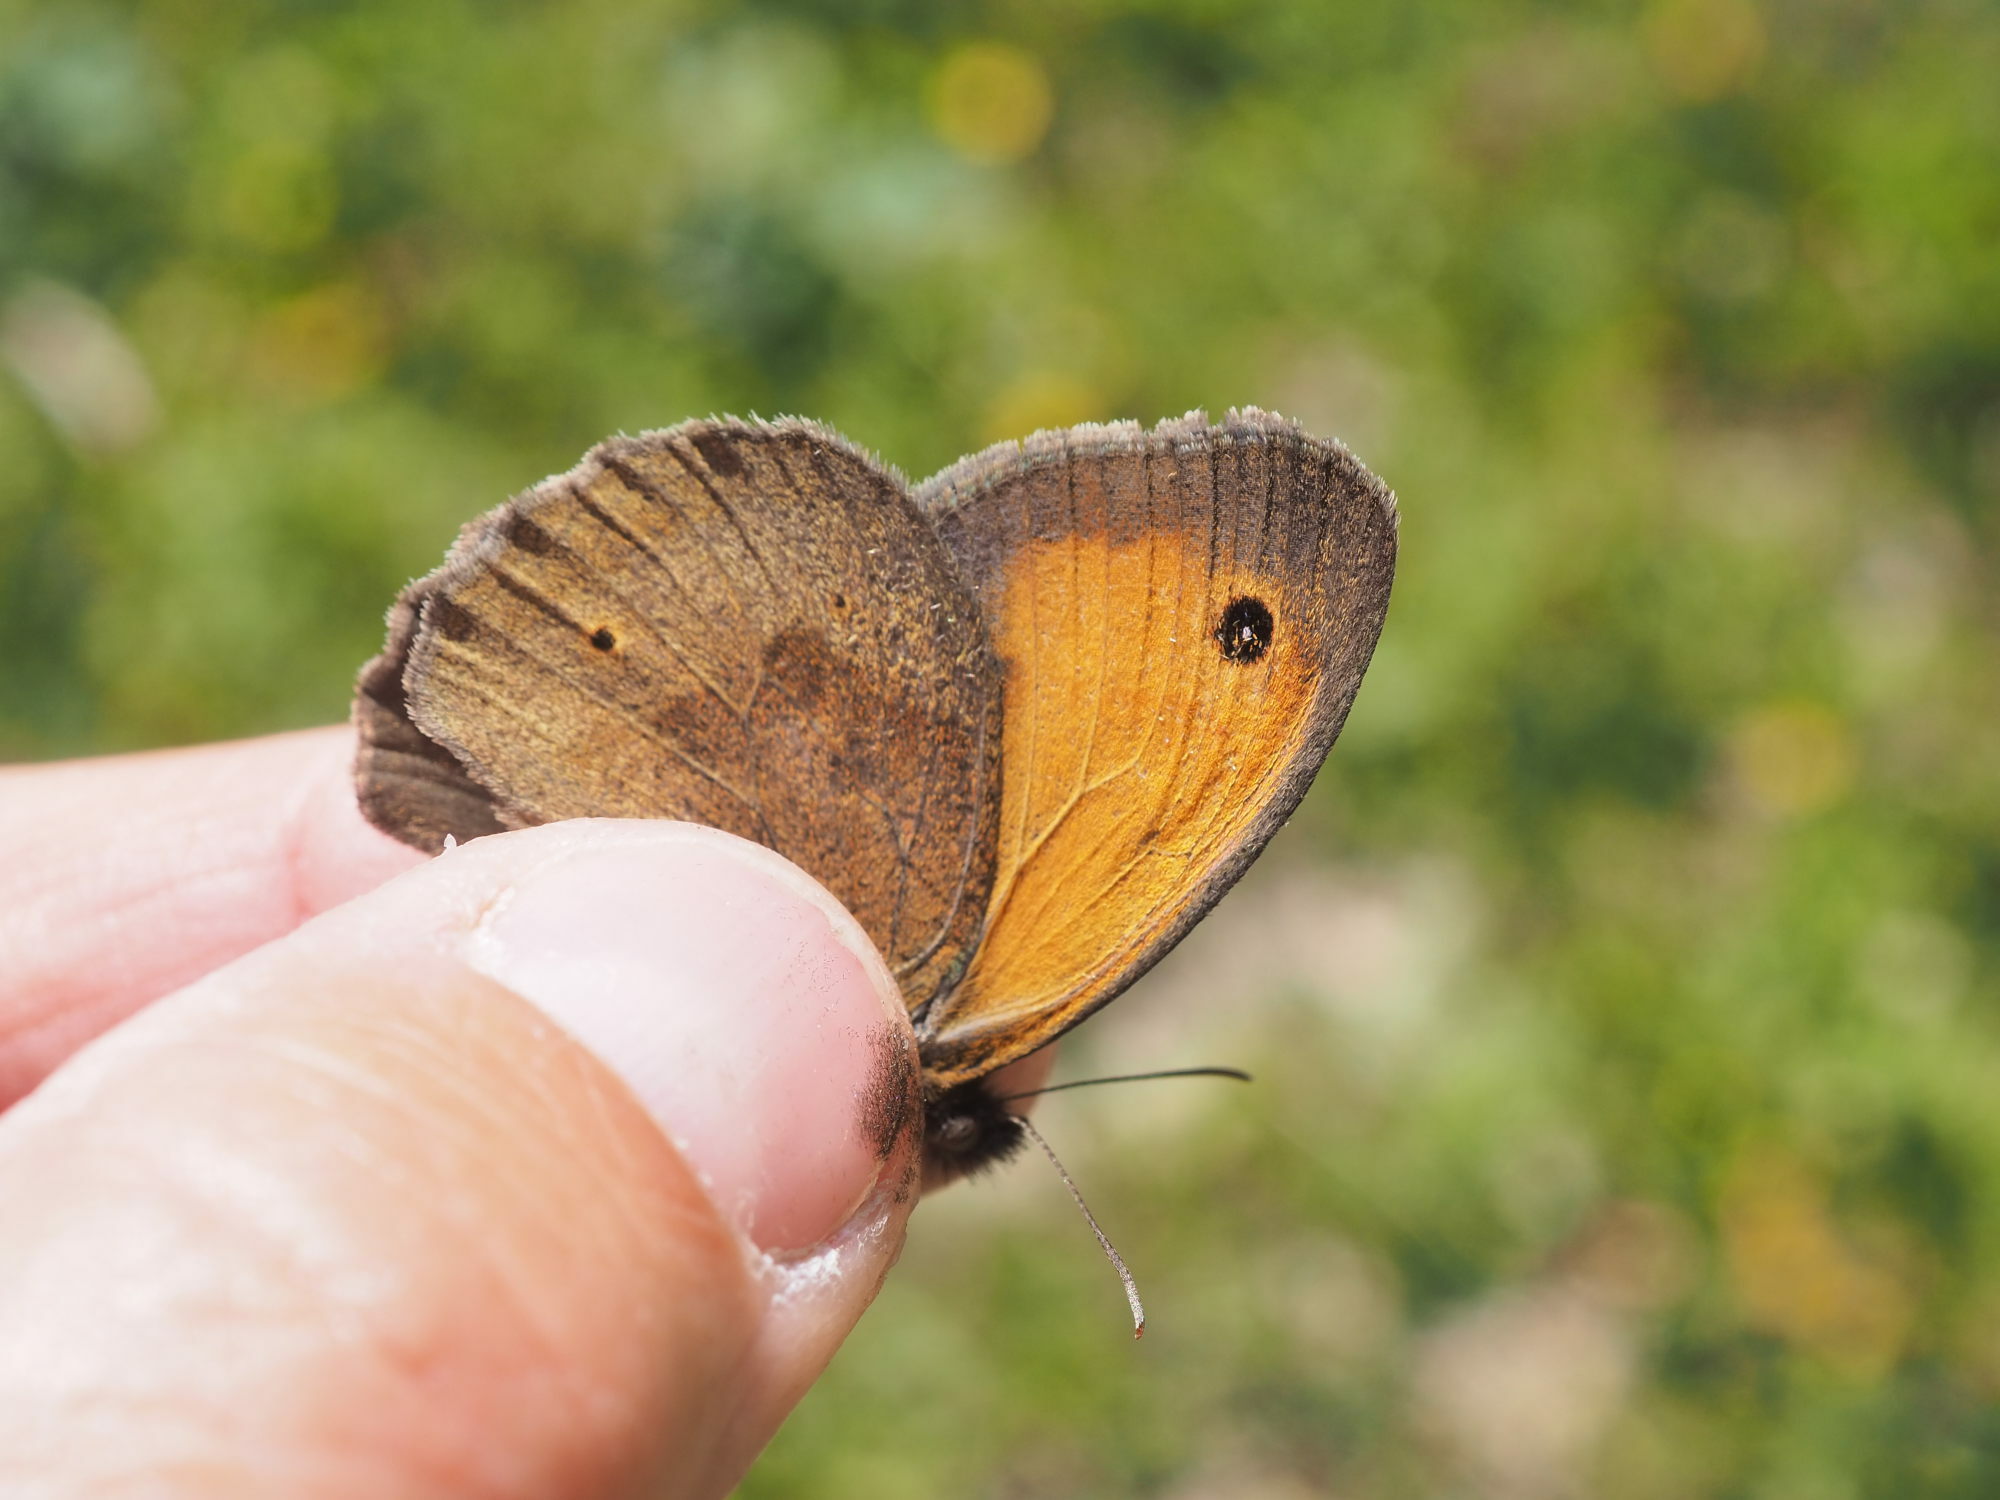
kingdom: Animalia
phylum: Arthropoda
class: Insecta
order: Lepidoptera
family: Nymphalidae
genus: Maniola
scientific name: Maniola jurtina
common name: Meadow brown
